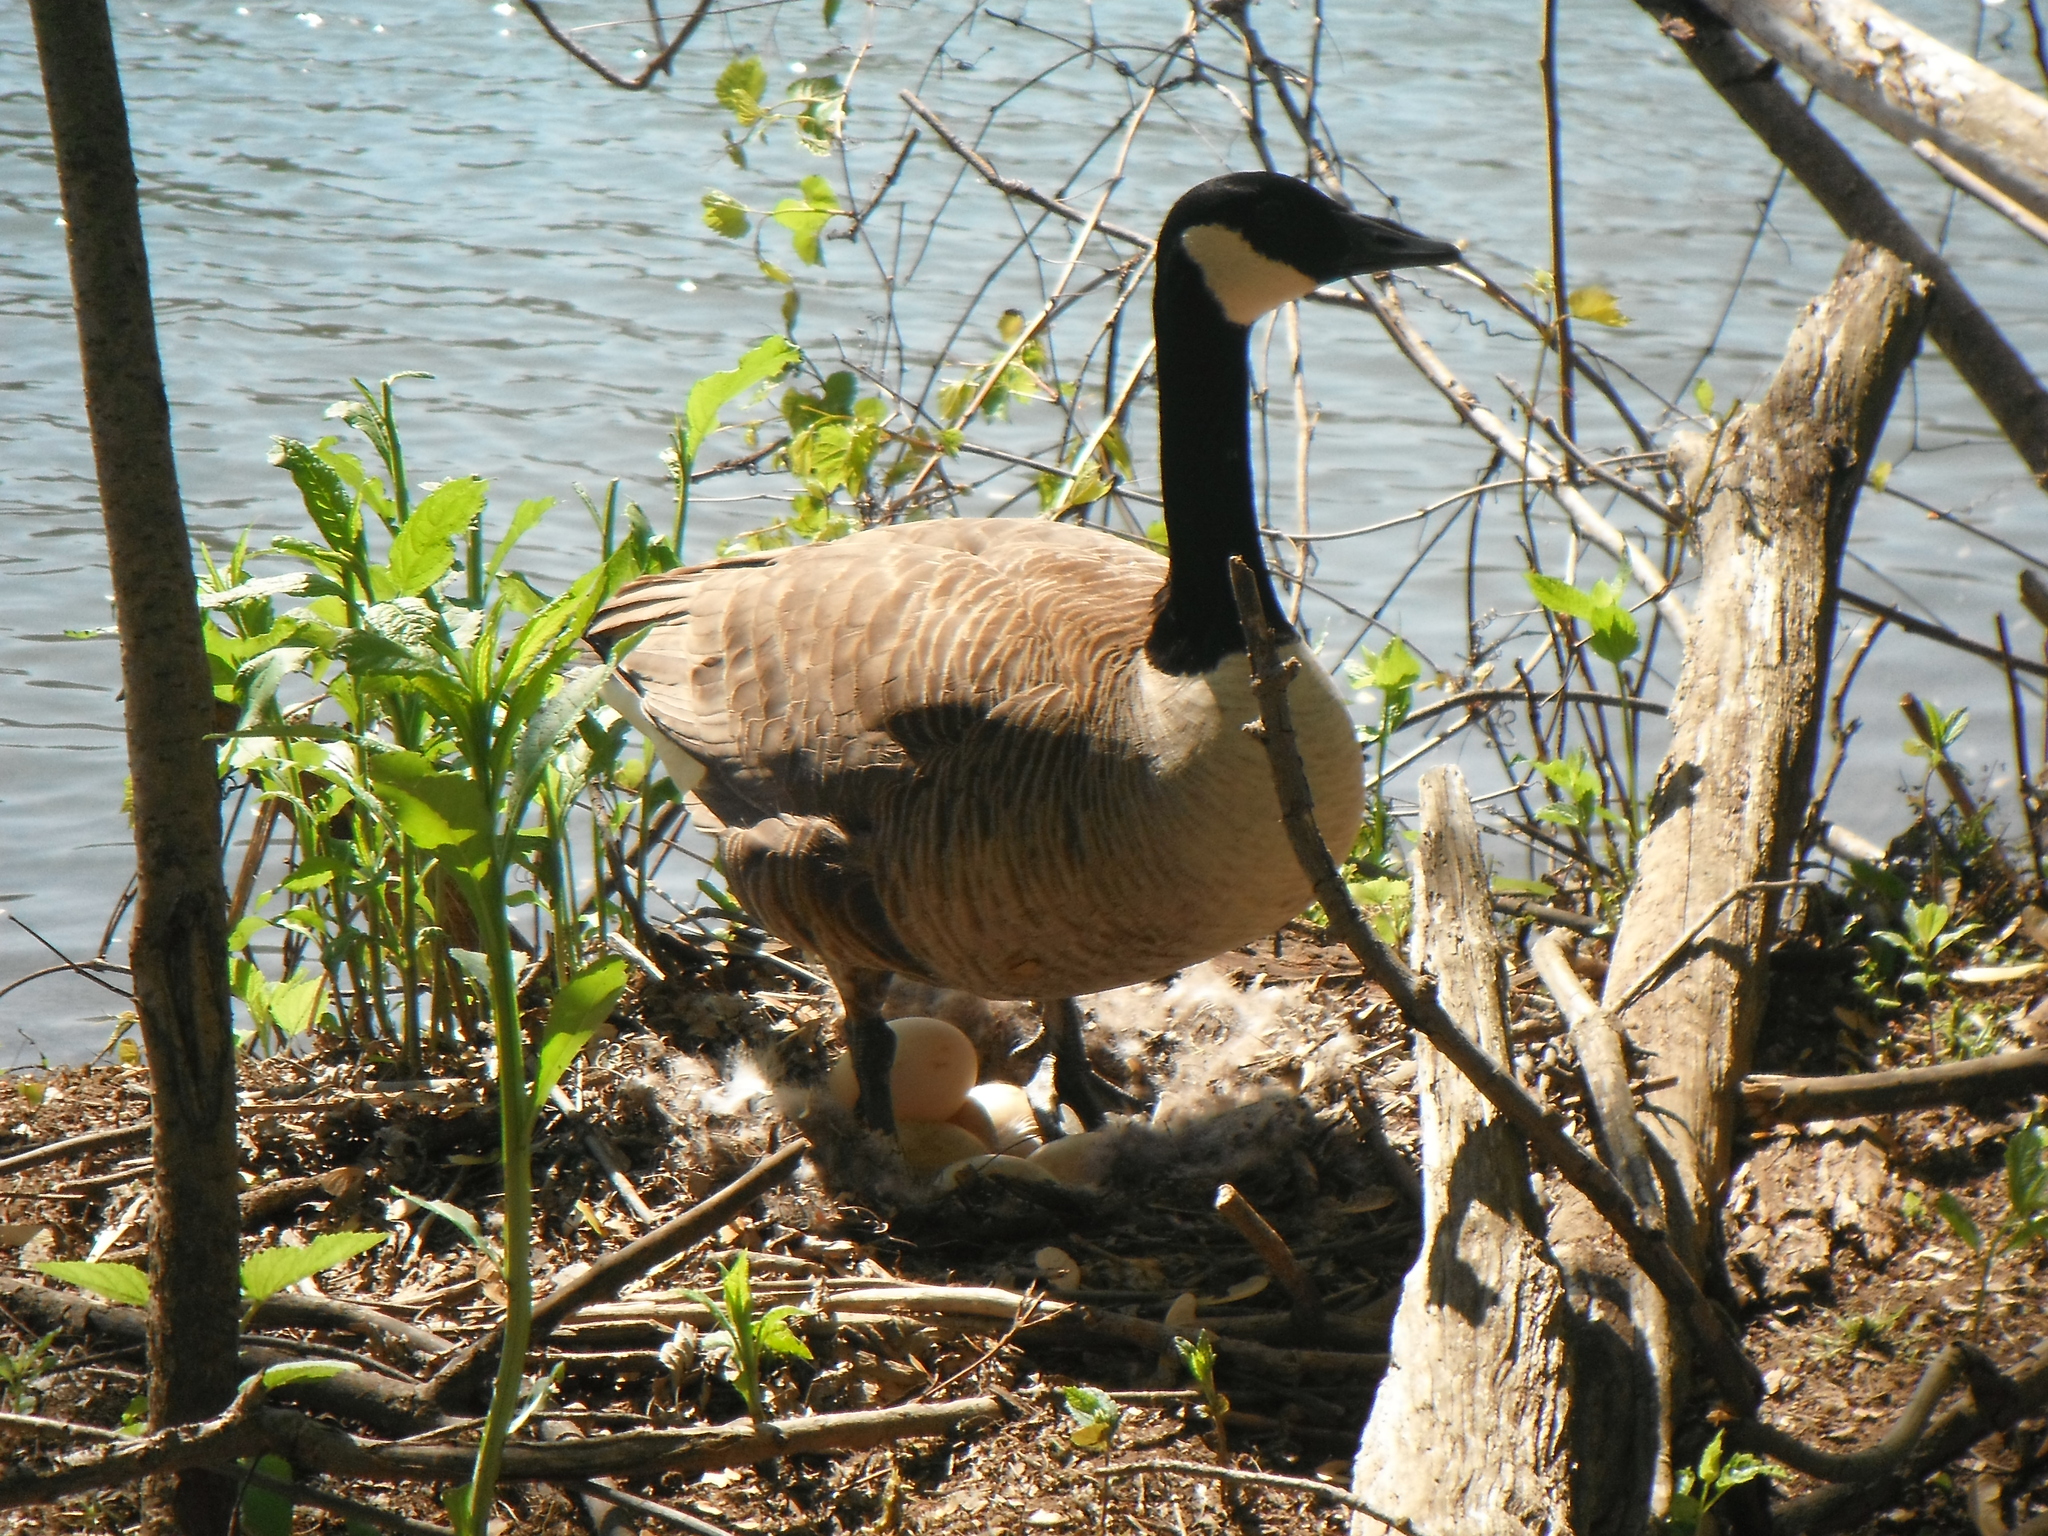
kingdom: Animalia
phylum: Chordata
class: Aves
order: Anseriformes
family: Anatidae
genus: Branta
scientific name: Branta canadensis
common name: Canada goose
